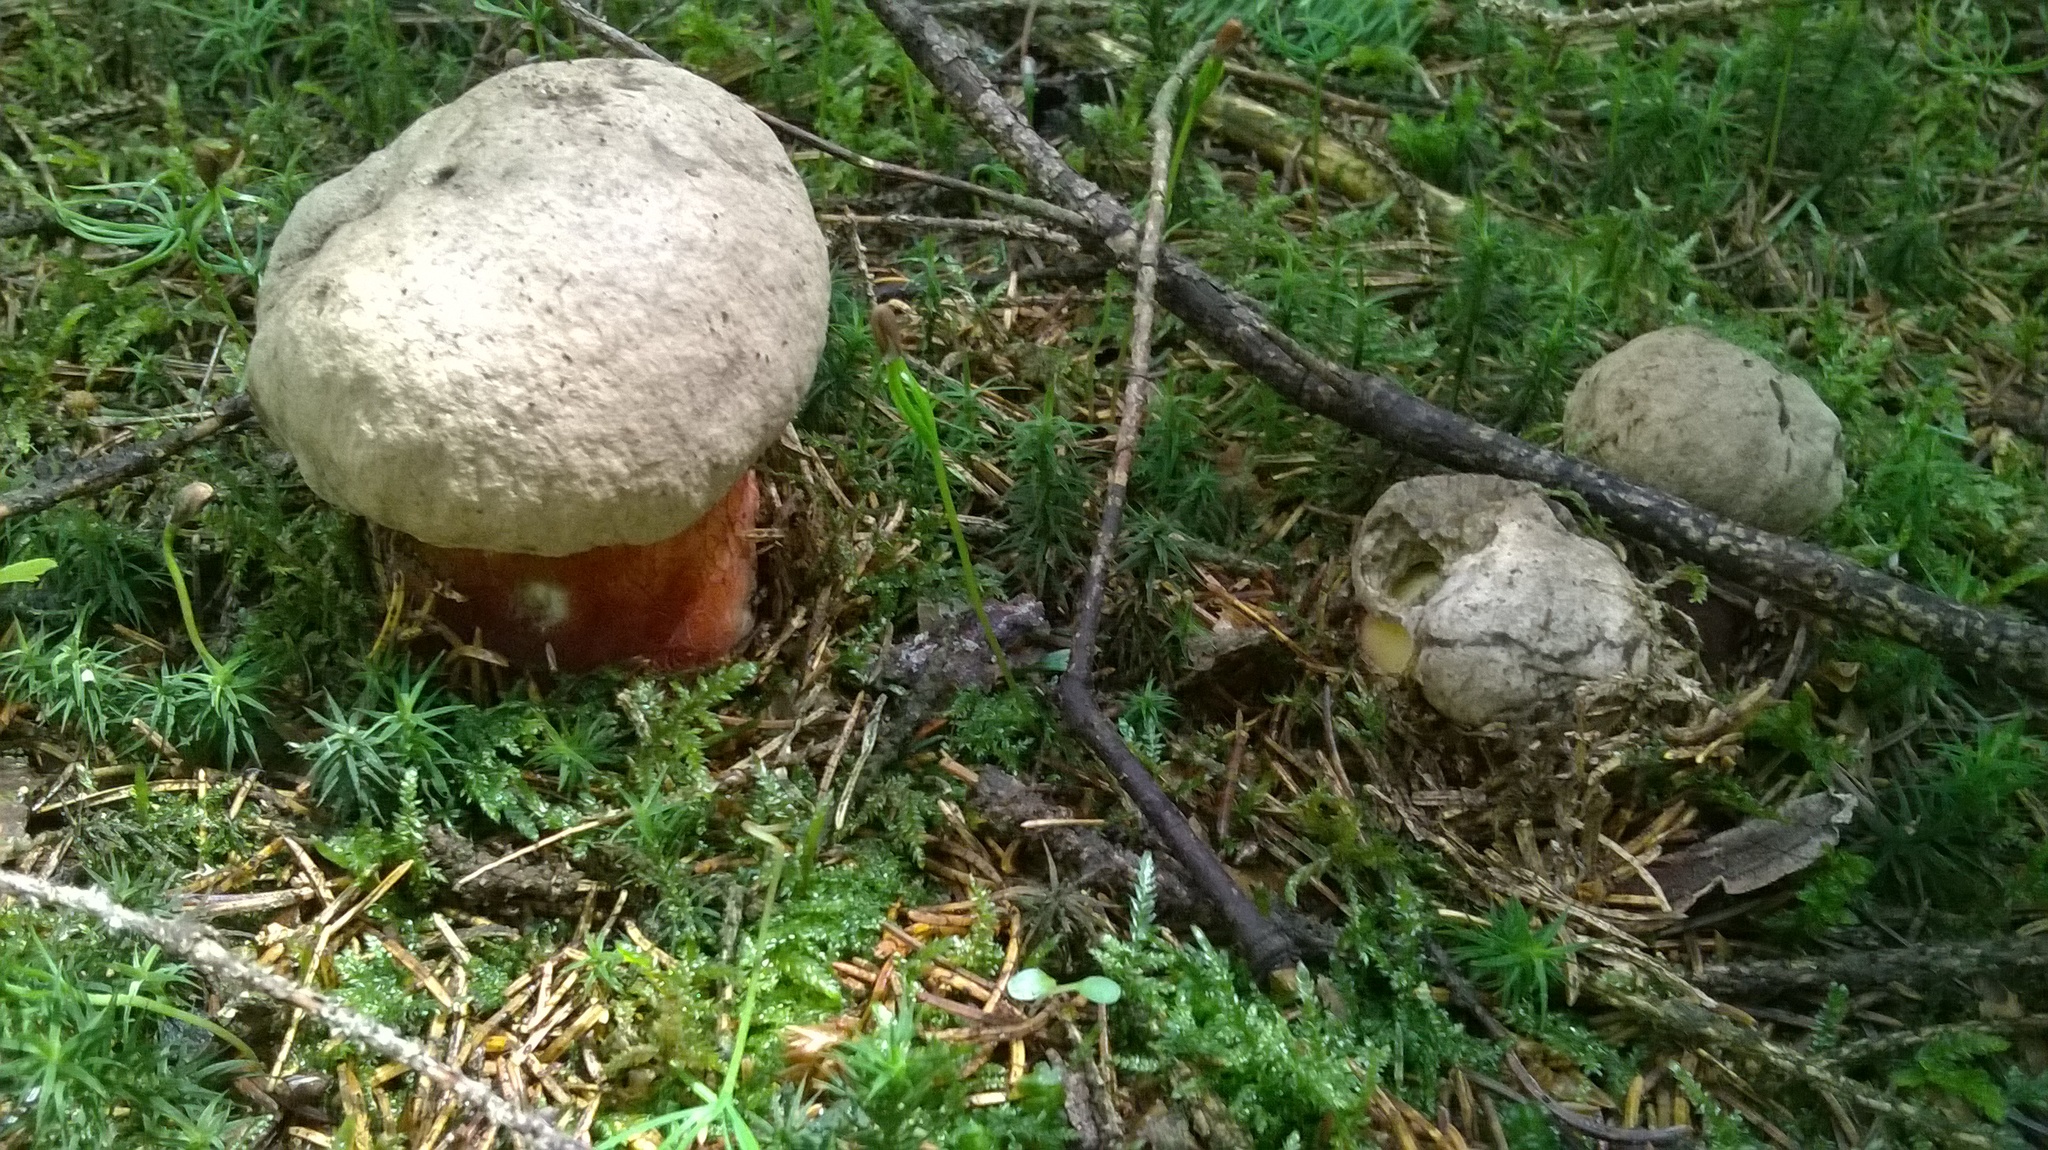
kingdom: Fungi
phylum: Basidiomycota
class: Agaricomycetes
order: Boletales
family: Boletaceae
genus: Caloboletus
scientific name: Caloboletus calopus
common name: Bitter beech bolete
